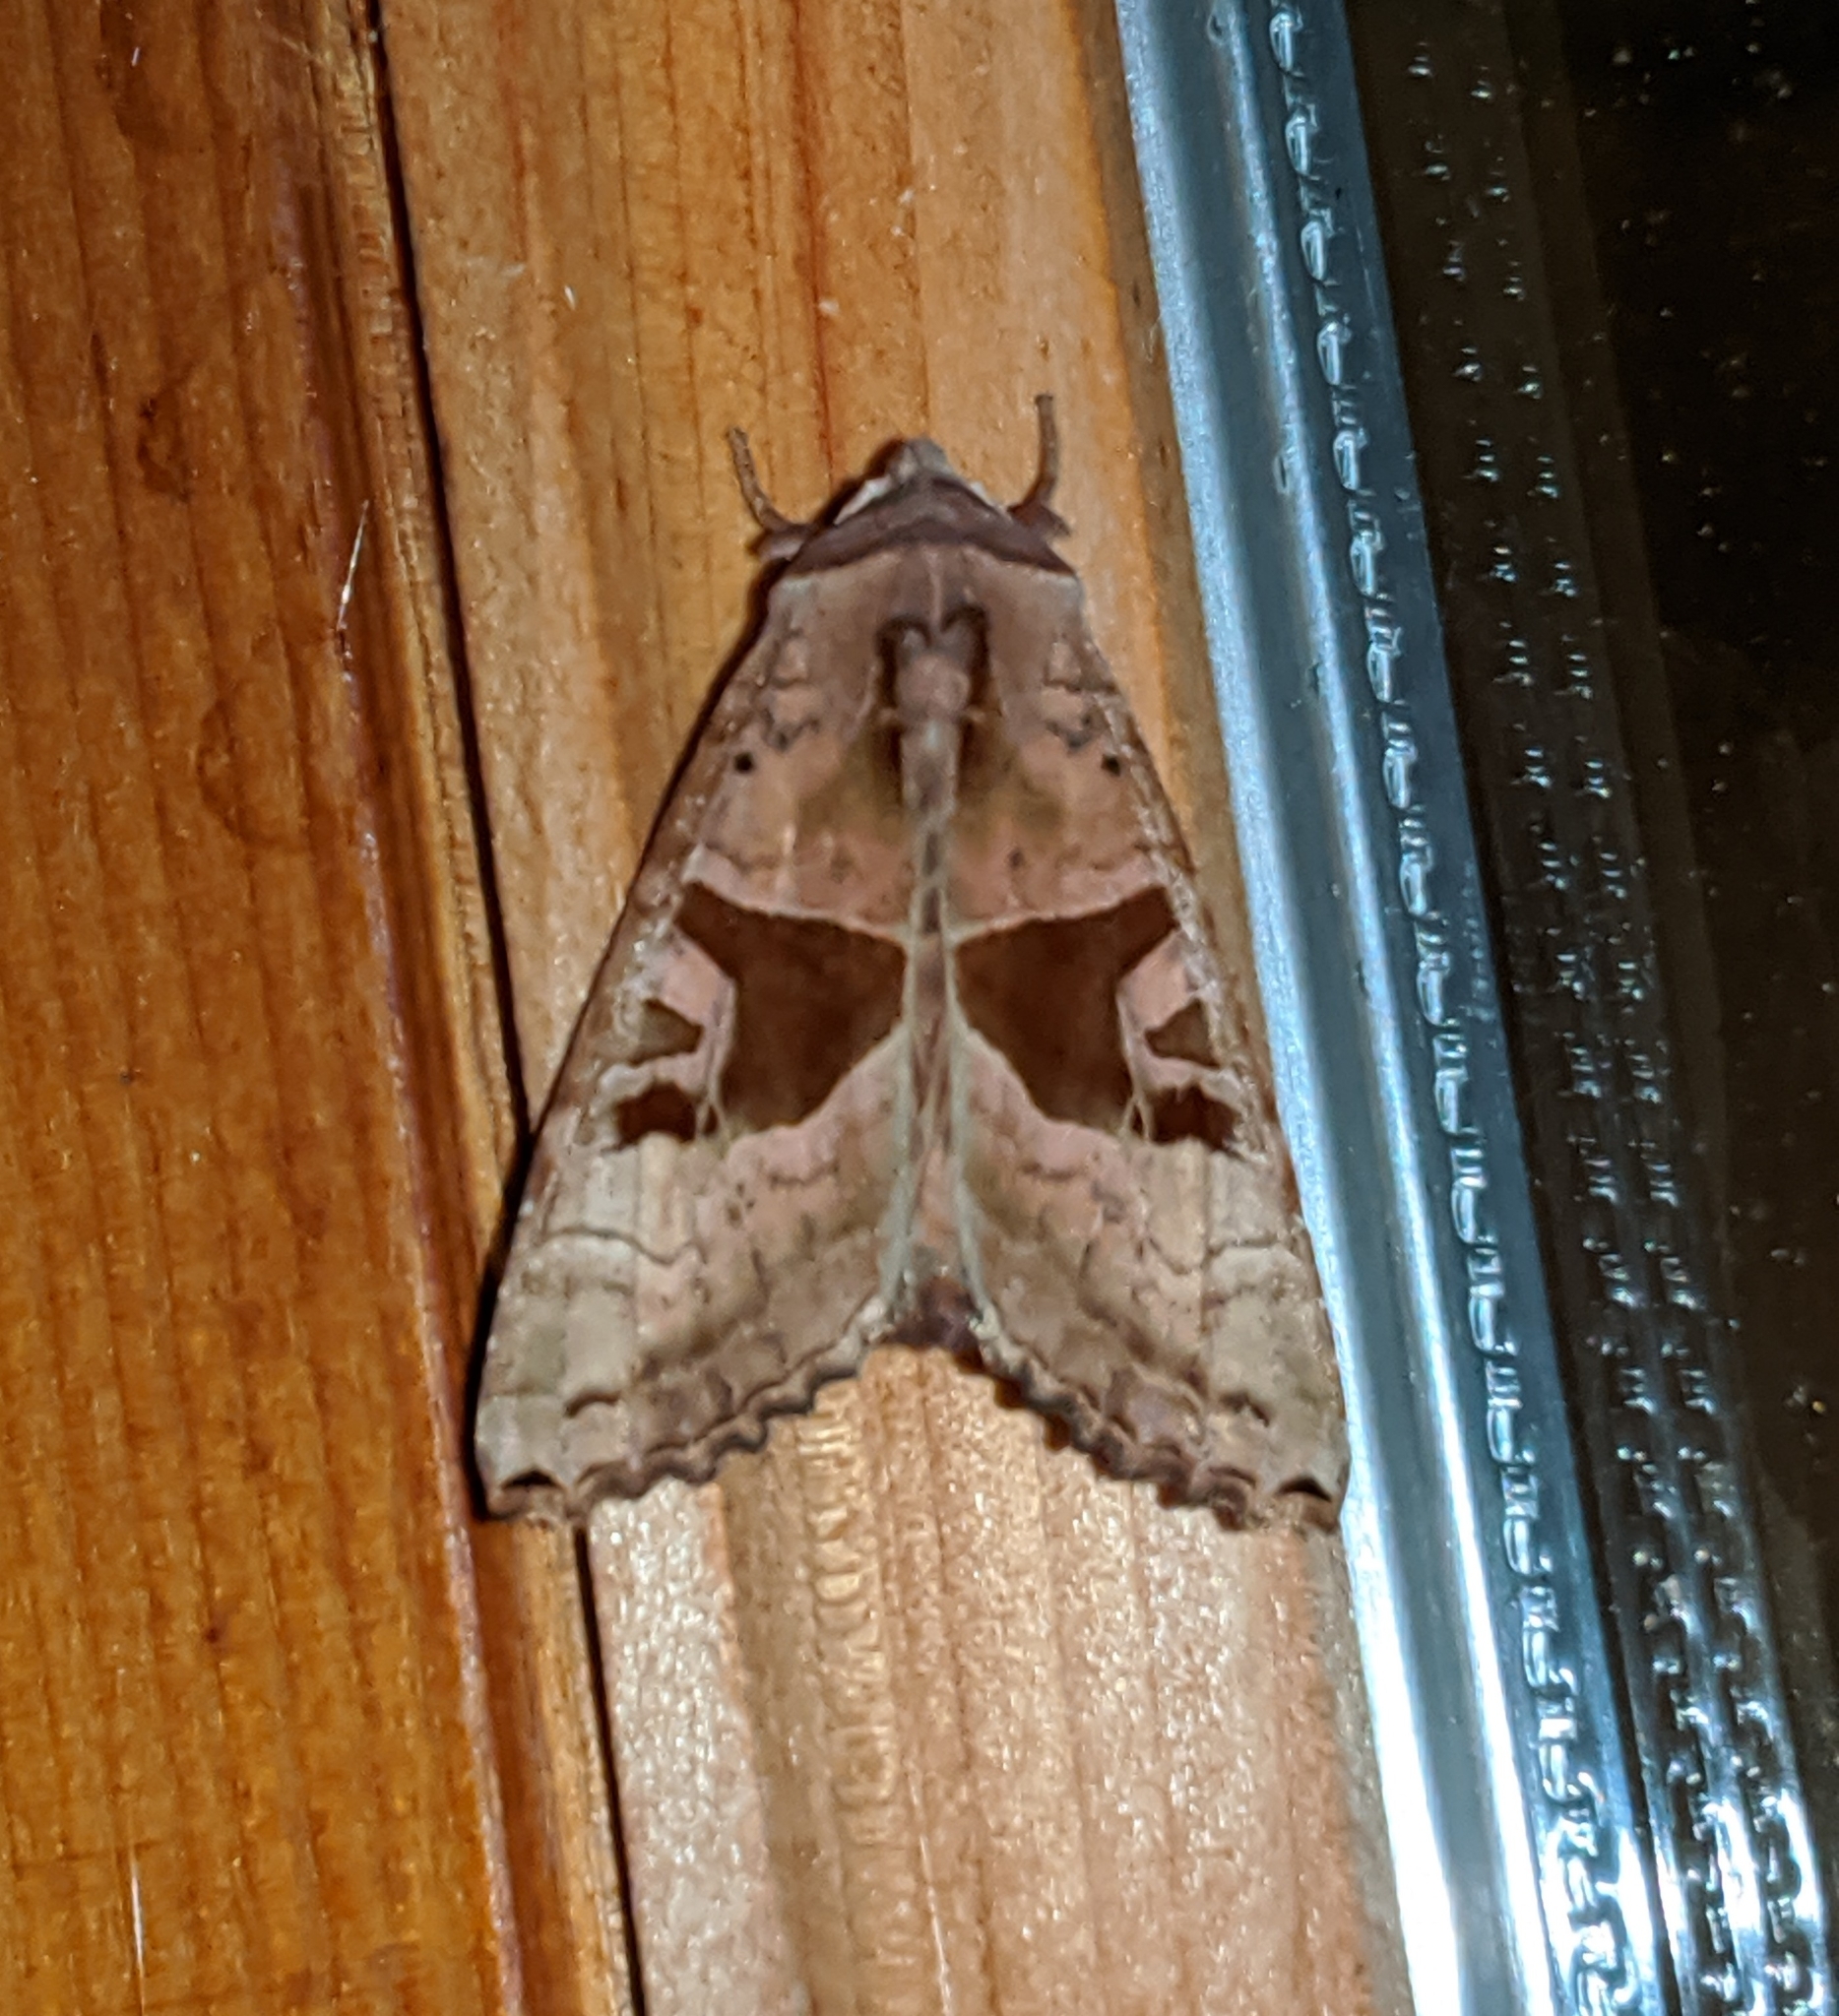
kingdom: Animalia
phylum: Arthropoda
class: Insecta
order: Lepidoptera
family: Noctuidae
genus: Phlogophora
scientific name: Phlogophora periculosa
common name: Brown angle shades
